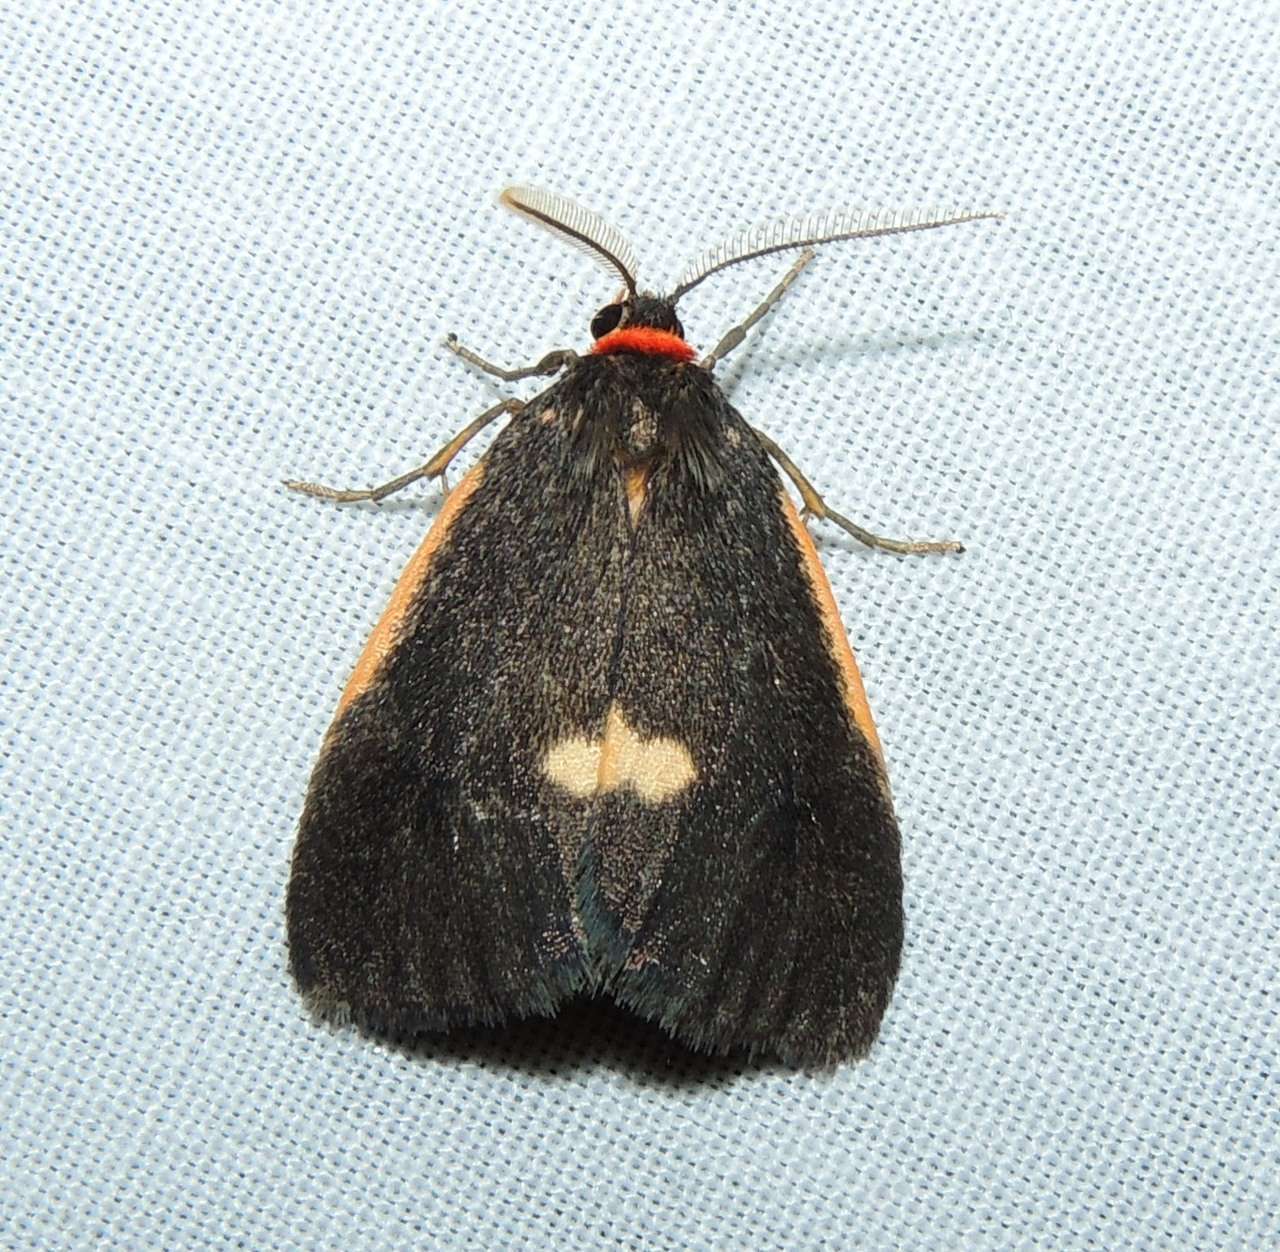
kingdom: Animalia
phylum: Arthropoda
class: Insecta
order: Lepidoptera
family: Erebidae
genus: Castulo
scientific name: Castulo doubledayi
